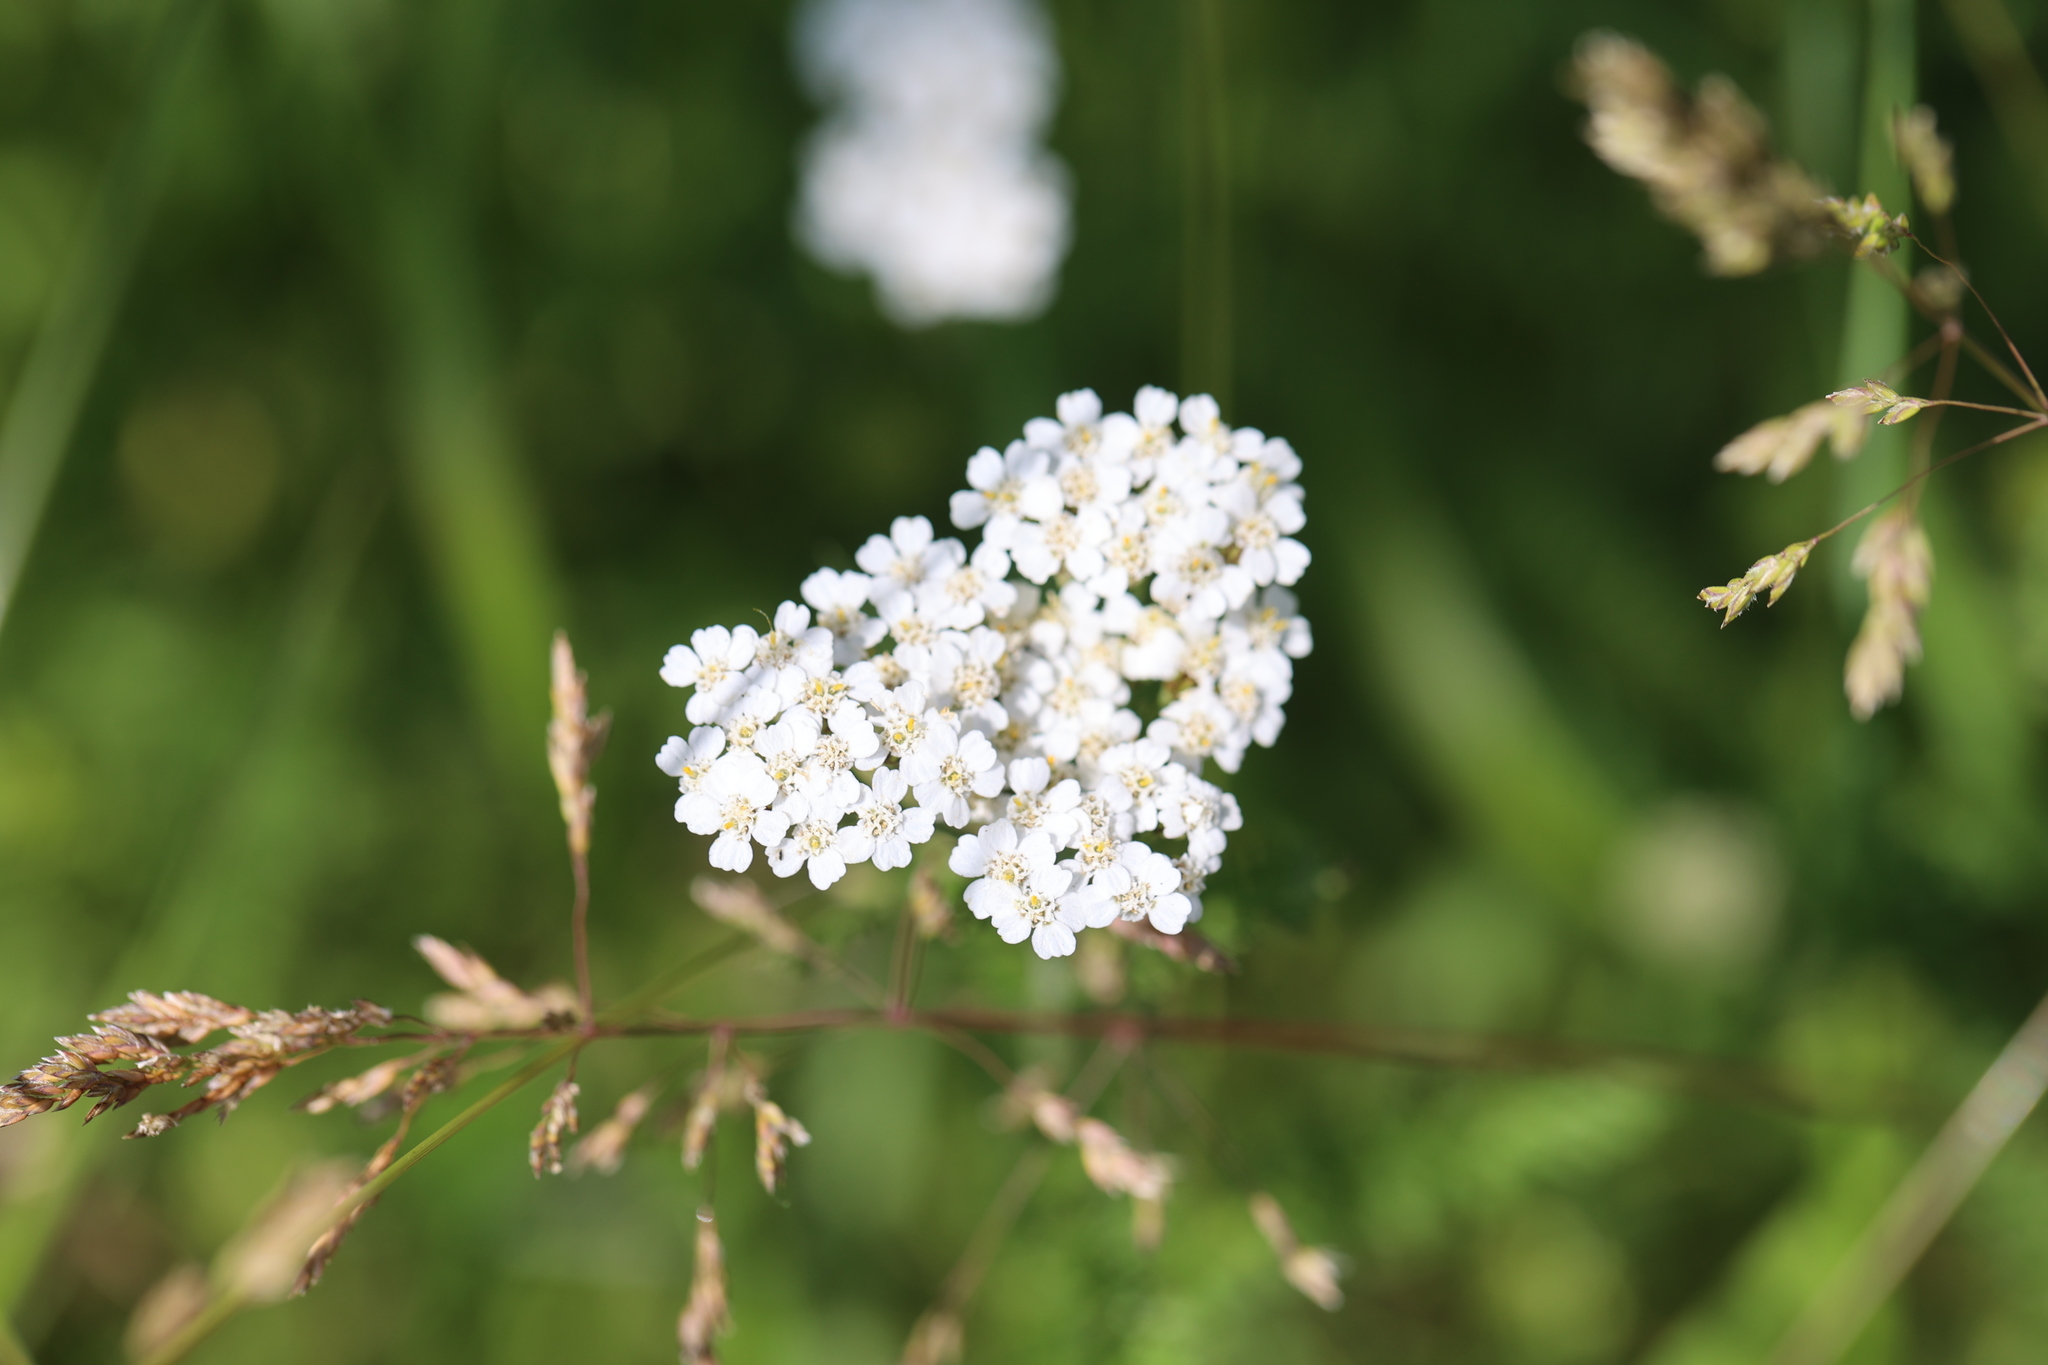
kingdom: Plantae
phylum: Tracheophyta
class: Magnoliopsida
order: Asterales
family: Asteraceae
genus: Achillea
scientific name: Achillea millefolium
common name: Yarrow
